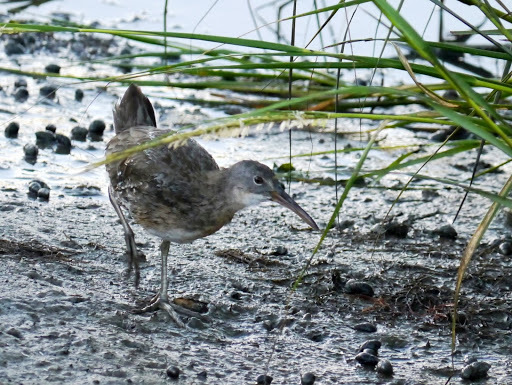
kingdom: Animalia
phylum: Chordata
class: Aves
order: Gruiformes
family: Rallidae
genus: Rallus
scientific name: Rallus crepitans
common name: Clapper rail
